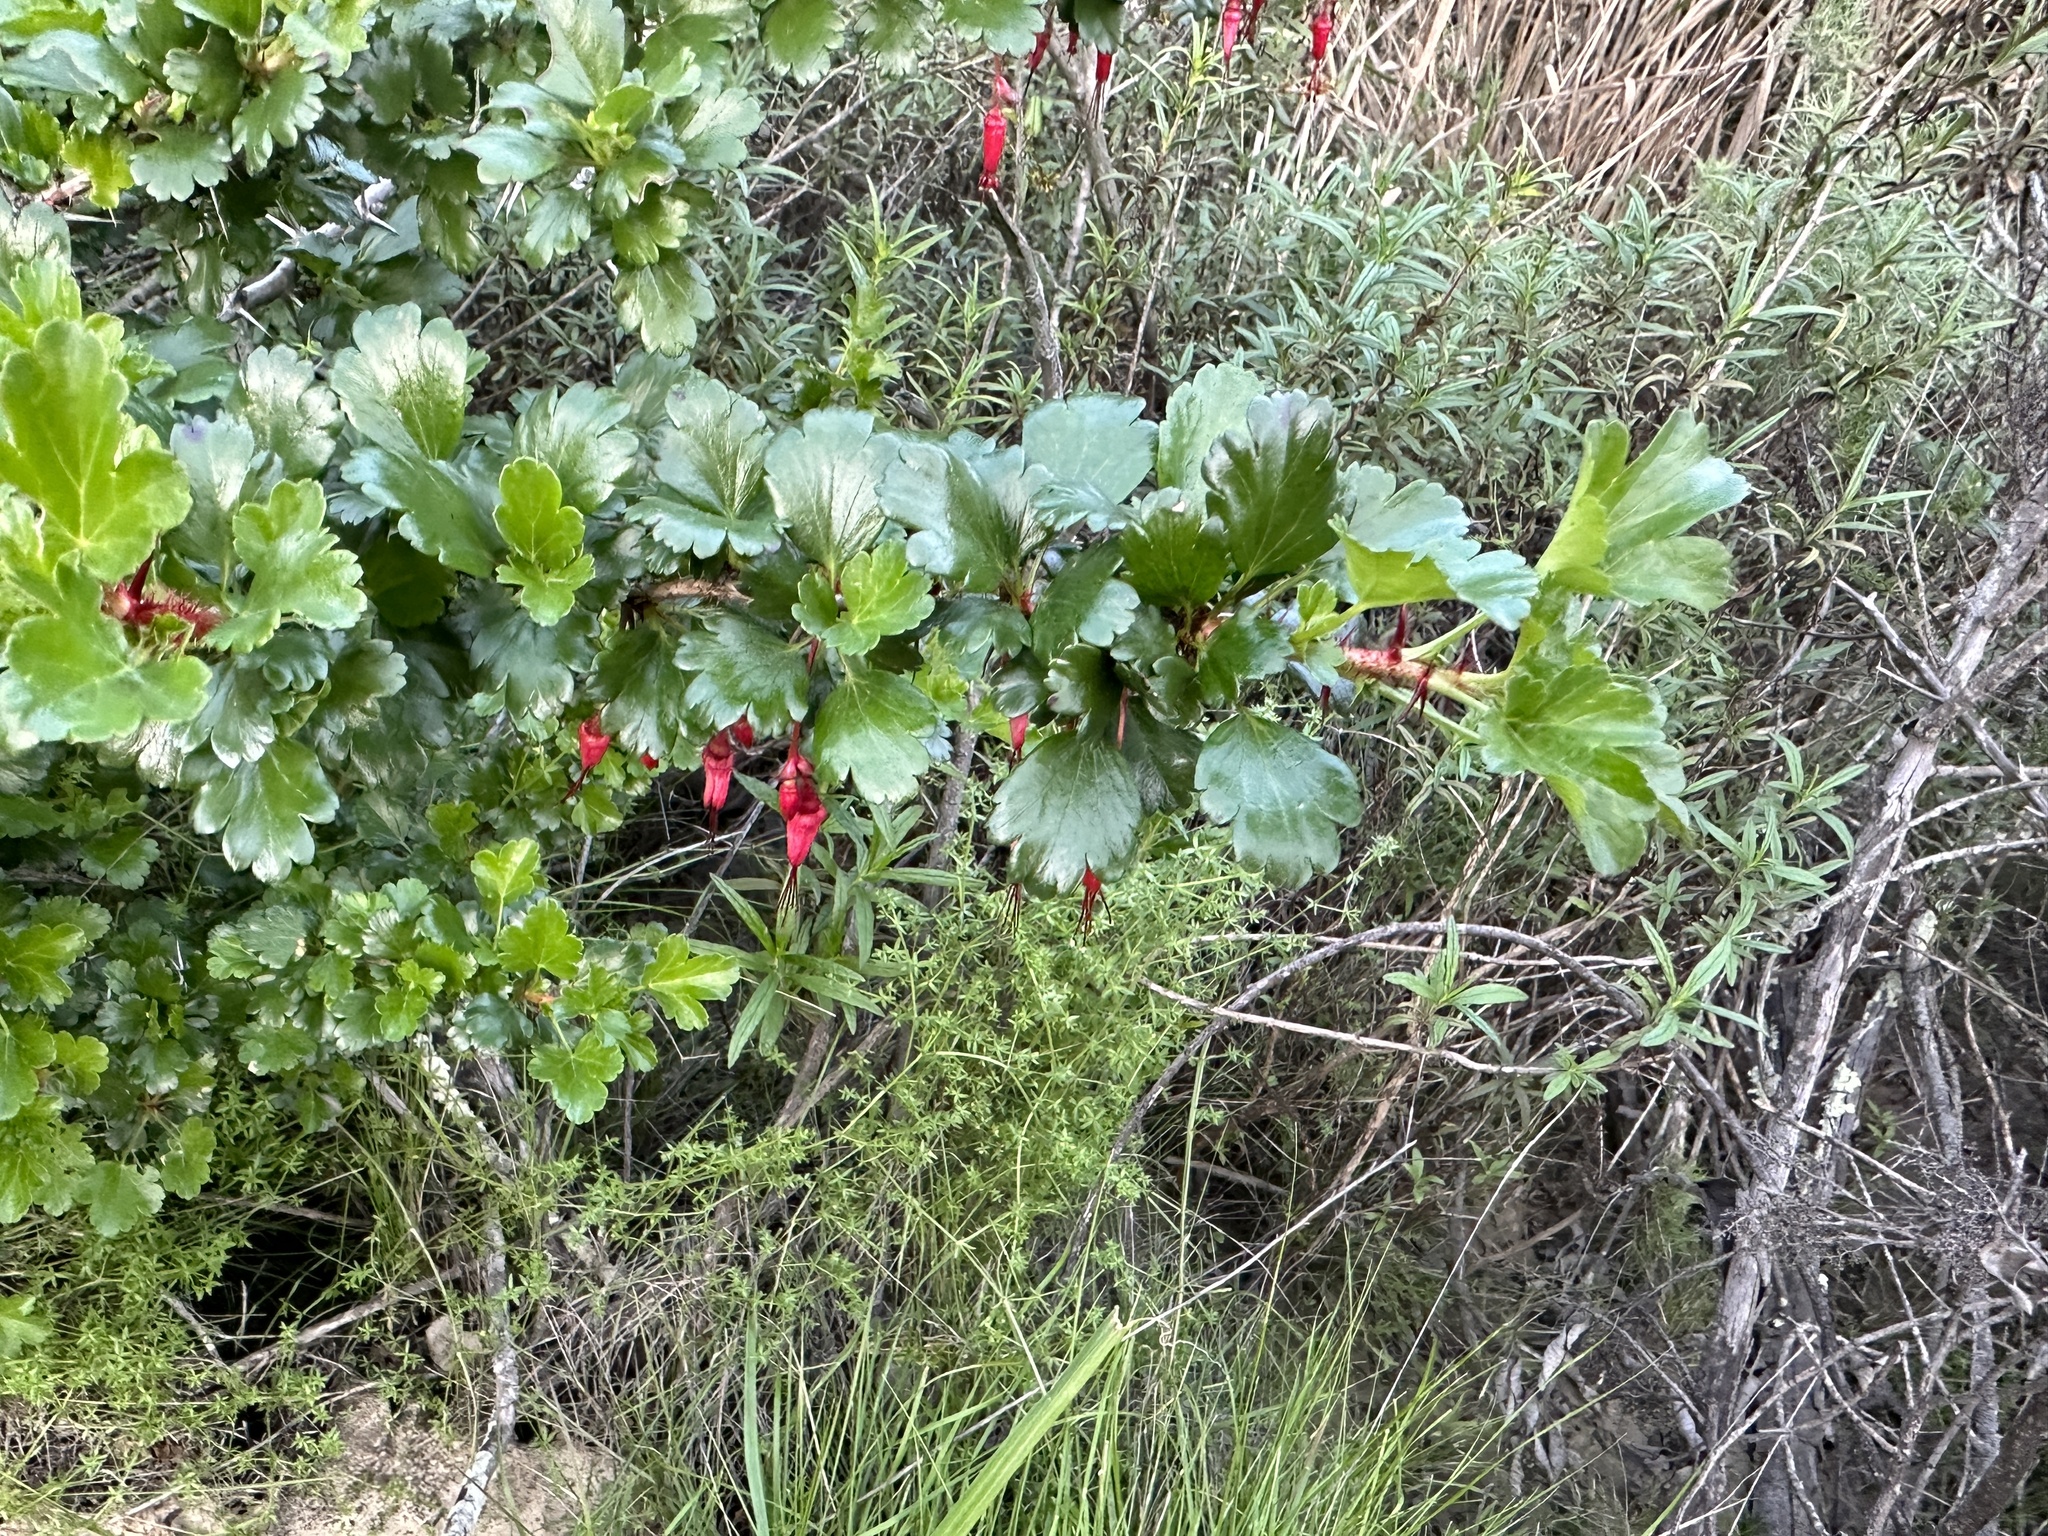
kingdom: Plantae
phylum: Tracheophyta
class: Magnoliopsida
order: Saxifragales
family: Grossulariaceae
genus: Ribes
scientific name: Ribes speciosum
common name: Fuchsia-flower gooseberry
